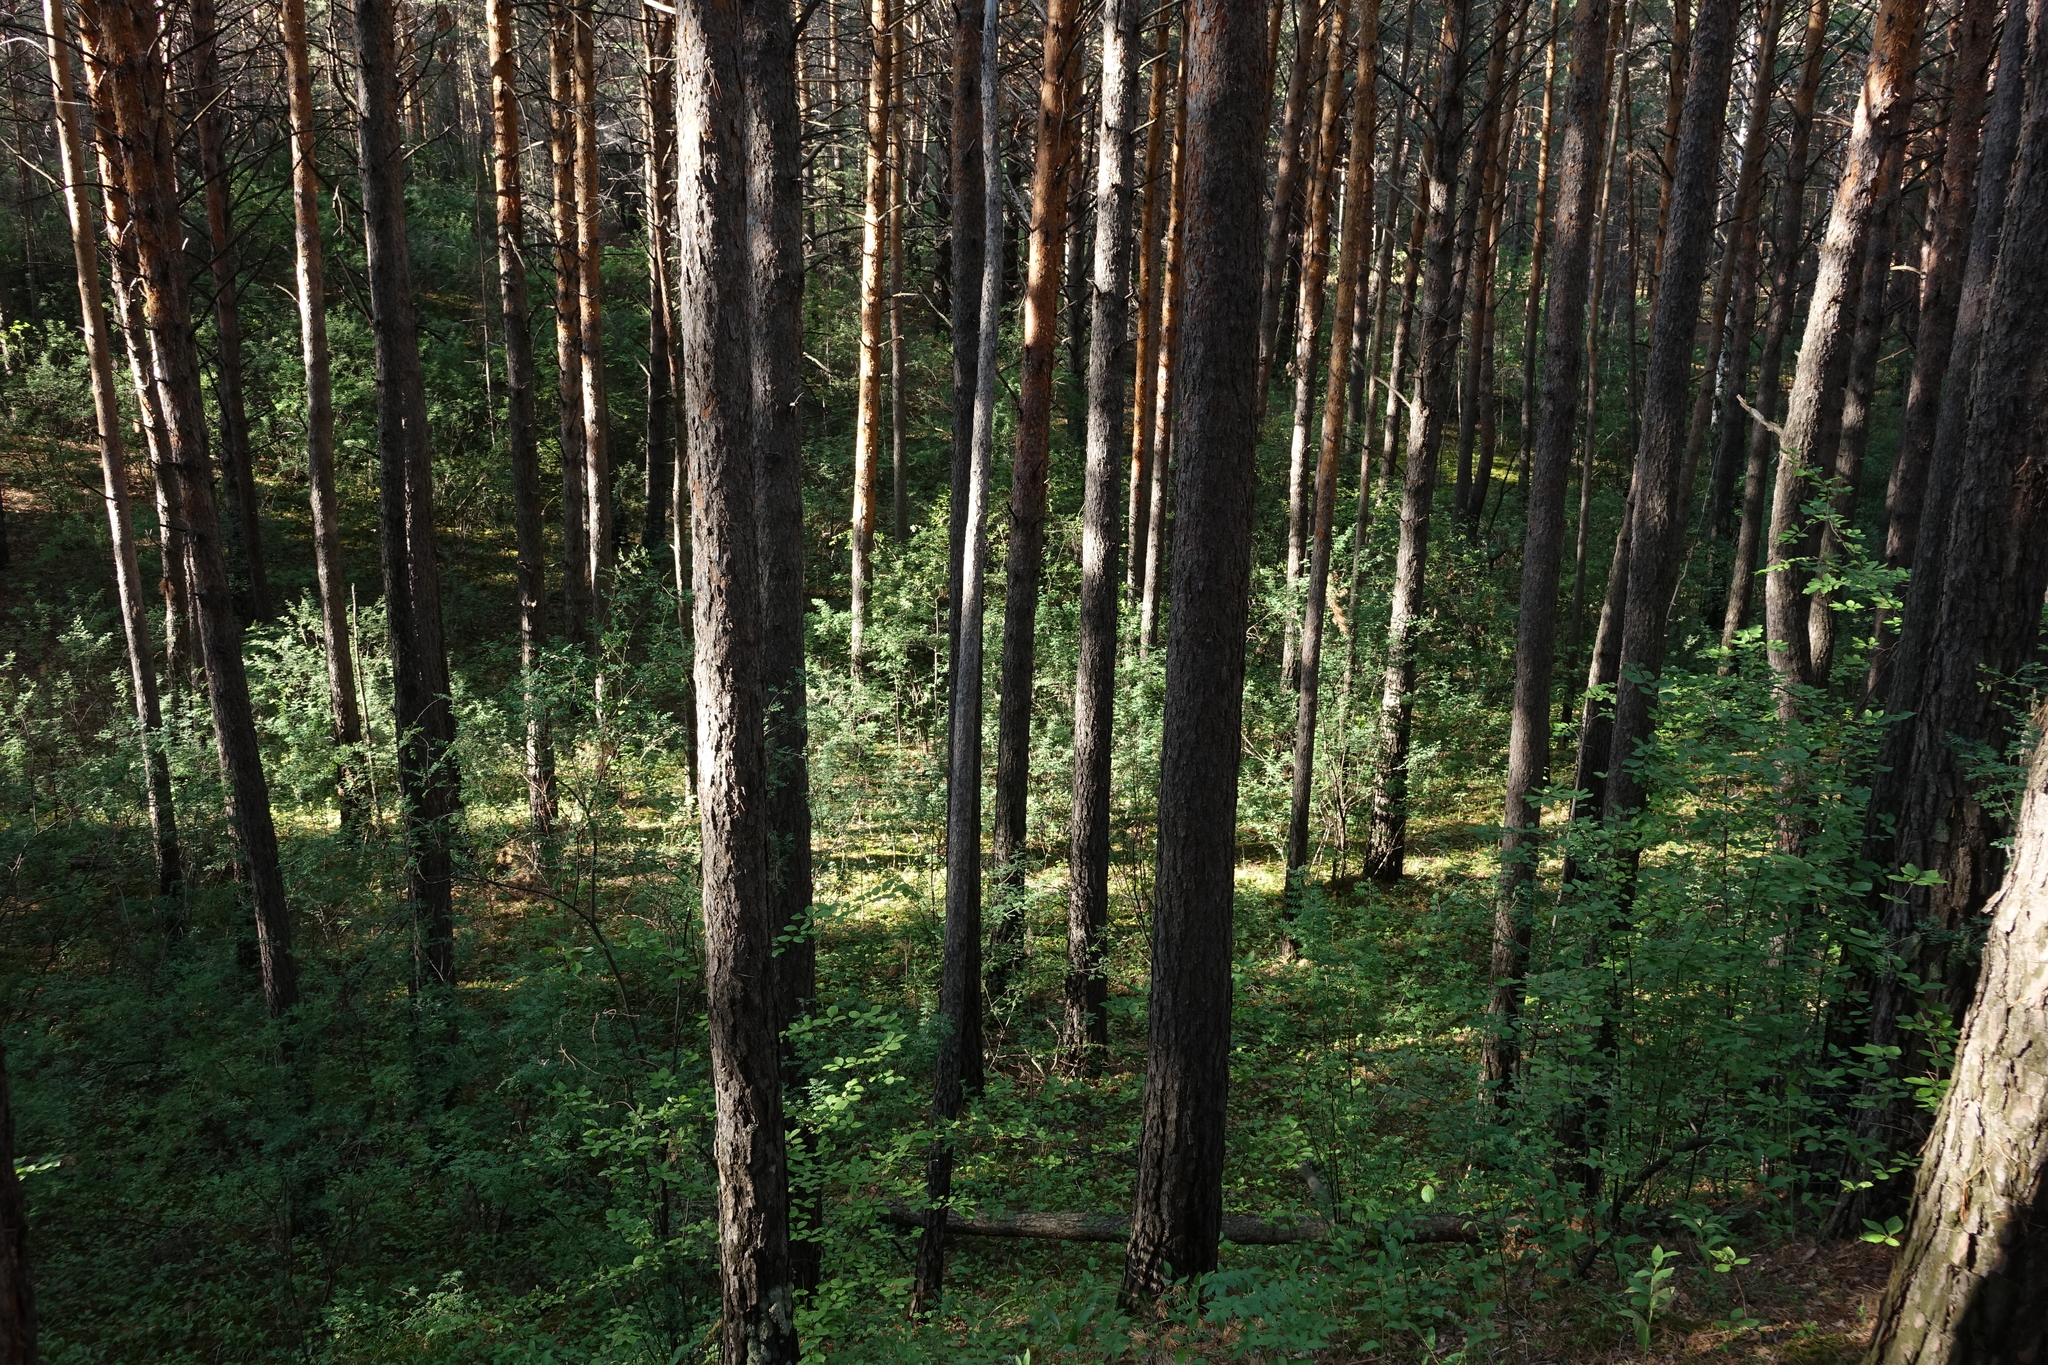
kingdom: Plantae
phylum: Tracheophyta
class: Pinopsida
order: Pinales
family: Pinaceae
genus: Pinus
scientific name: Pinus sylvestris
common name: Scots pine
